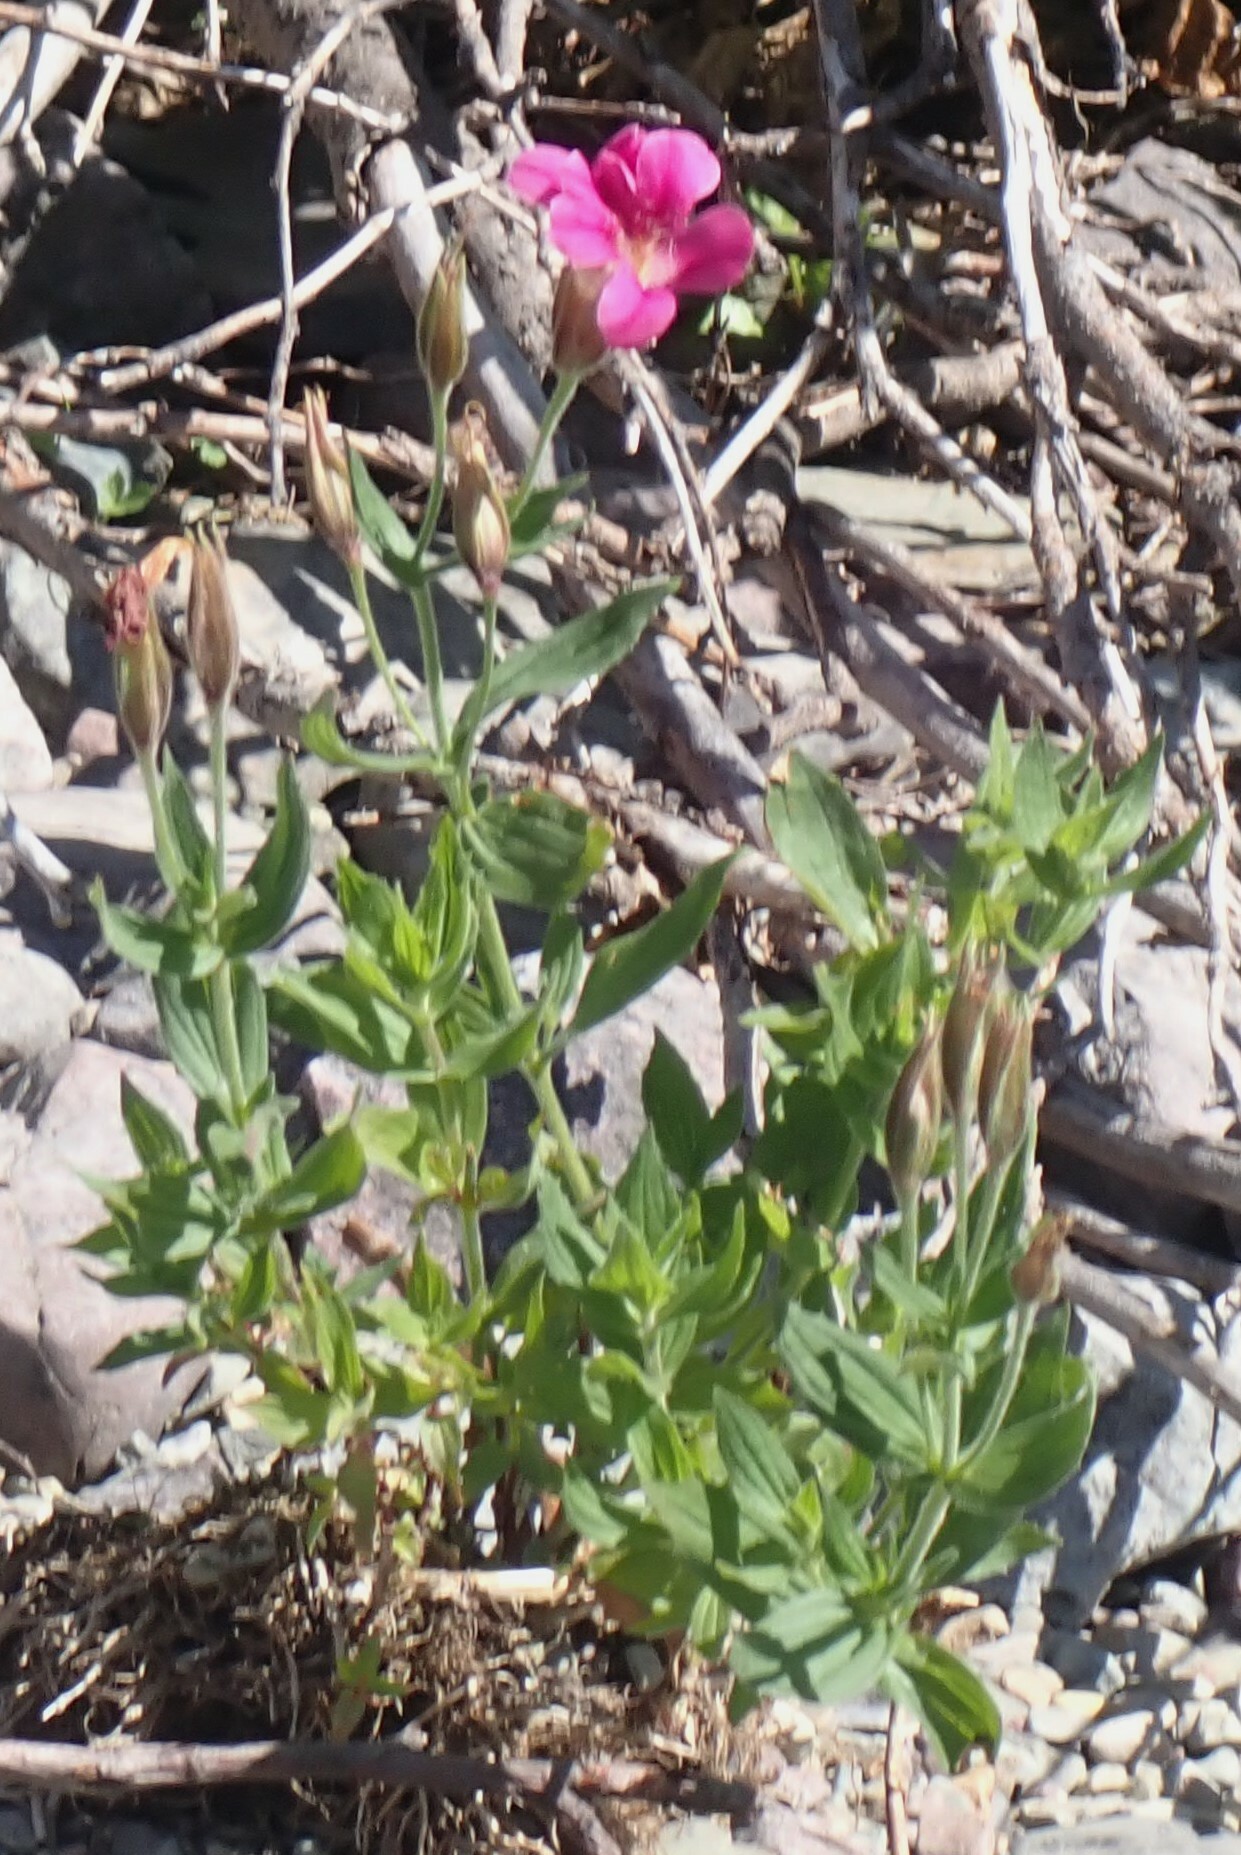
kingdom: Plantae
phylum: Tracheophyta
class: Magnoliopsida
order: Lamiales
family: Phrymaceae
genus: Erythranthe
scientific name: Erythranthe lewisii
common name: Lewis's monkey-flower
